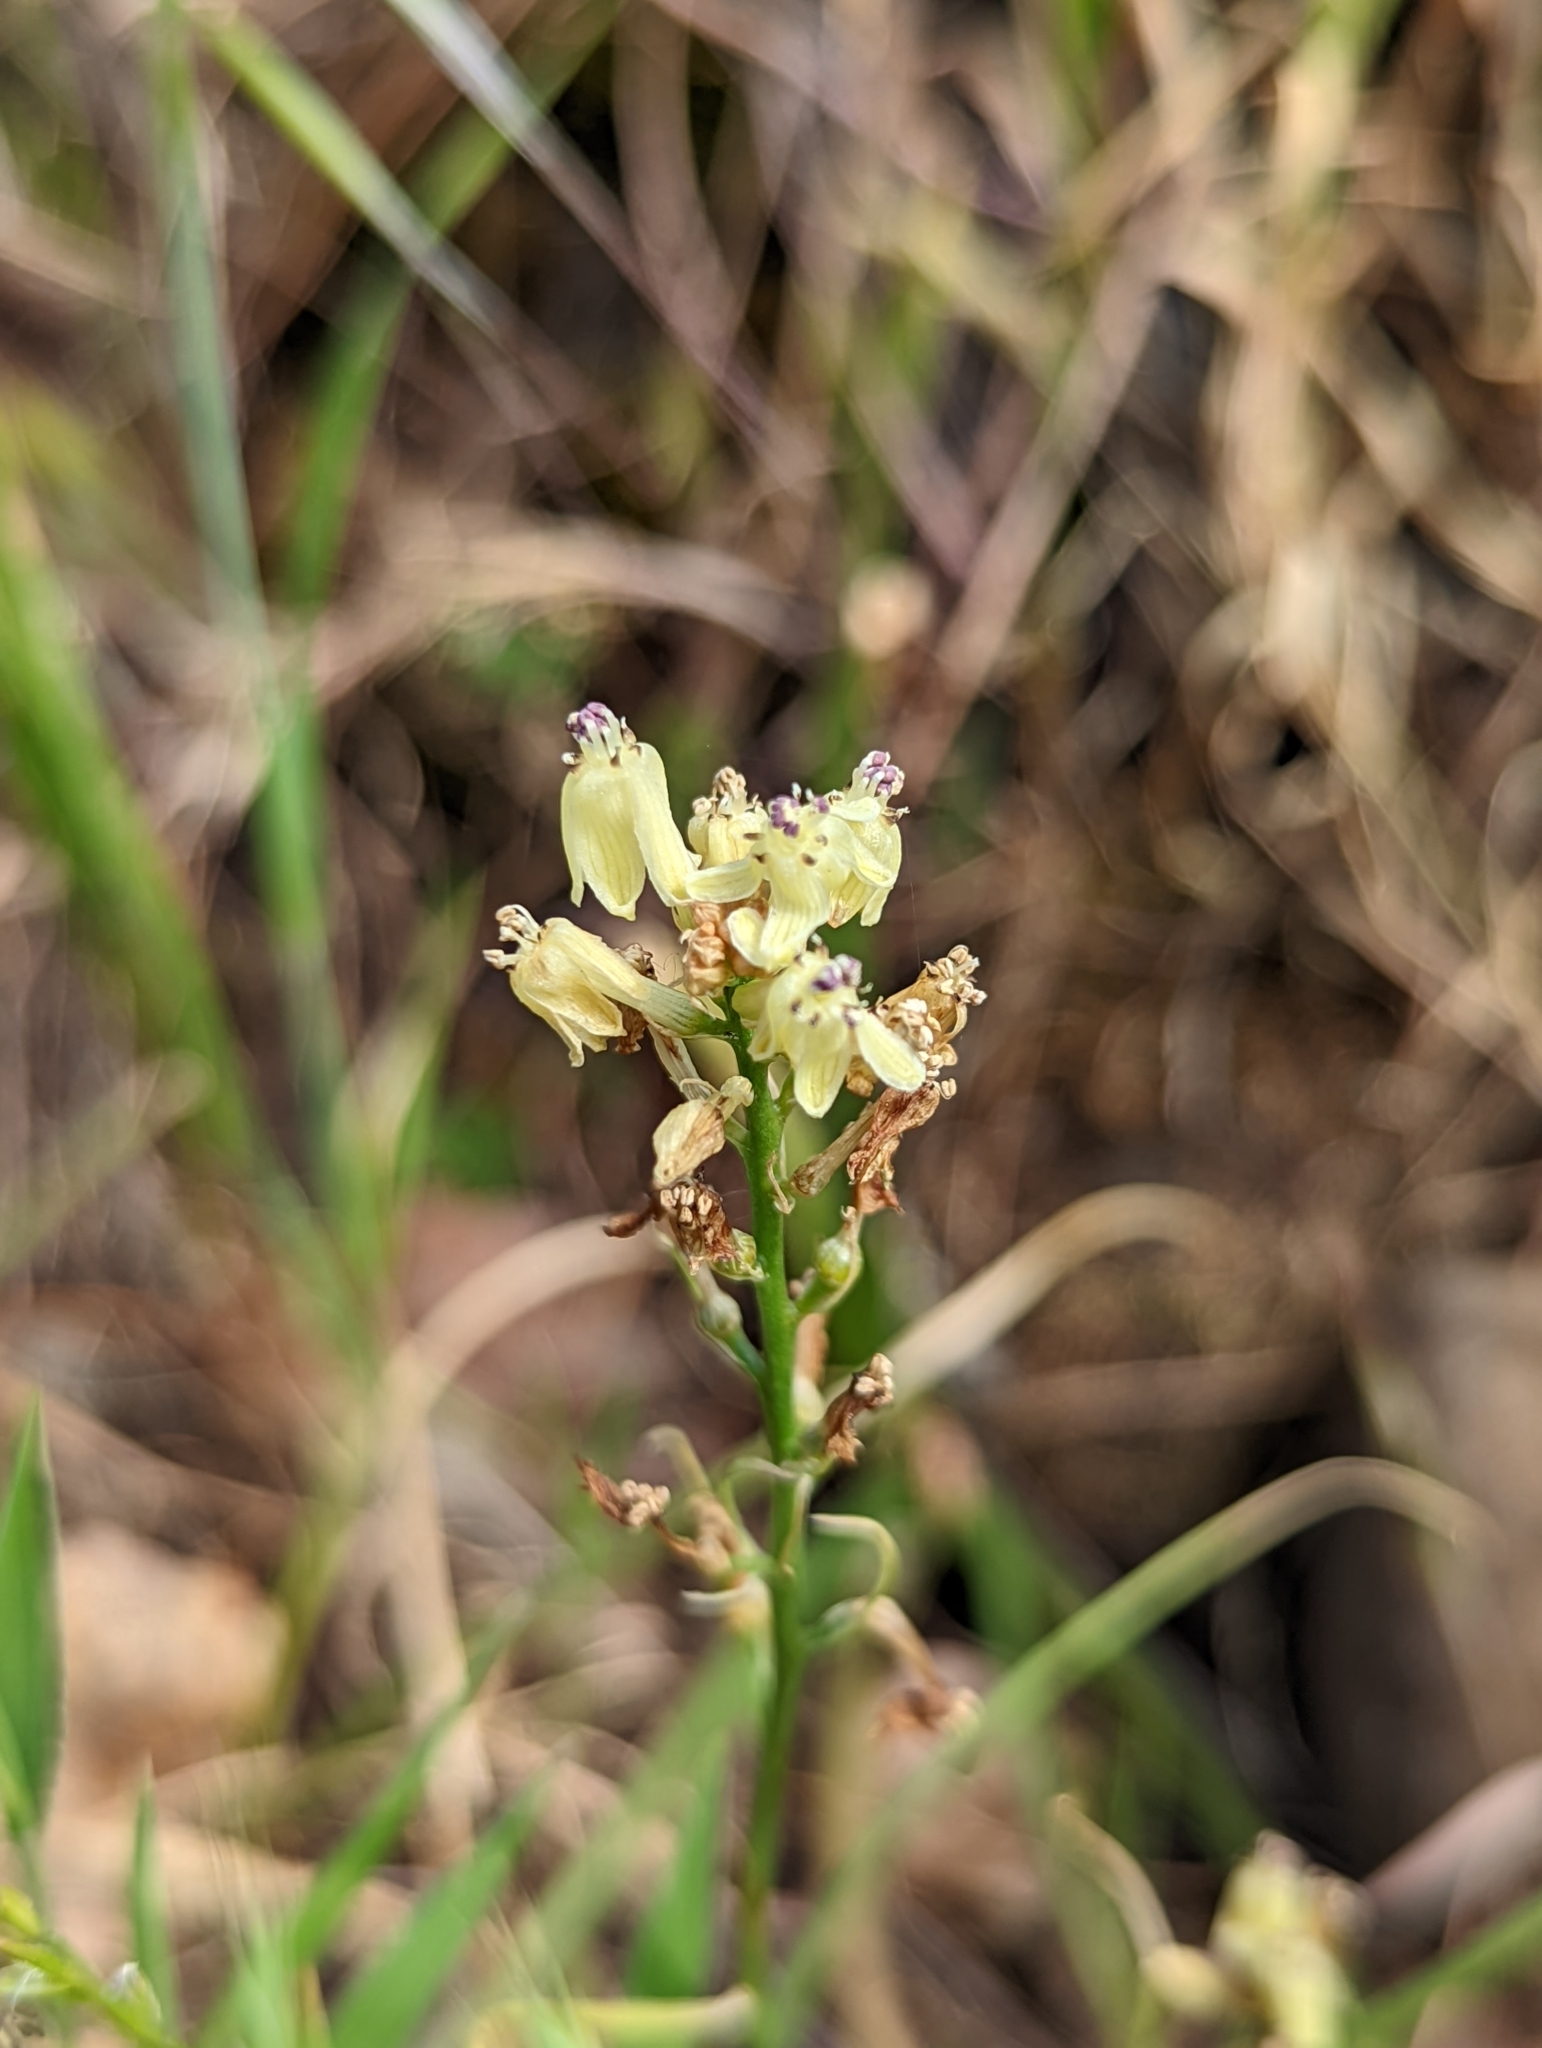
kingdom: Plantae
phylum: Tracheophyta
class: Liliopsida
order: Asparagales
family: Tecophilaeaceae
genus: Odontostomum
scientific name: Odontostomum hartwegii
